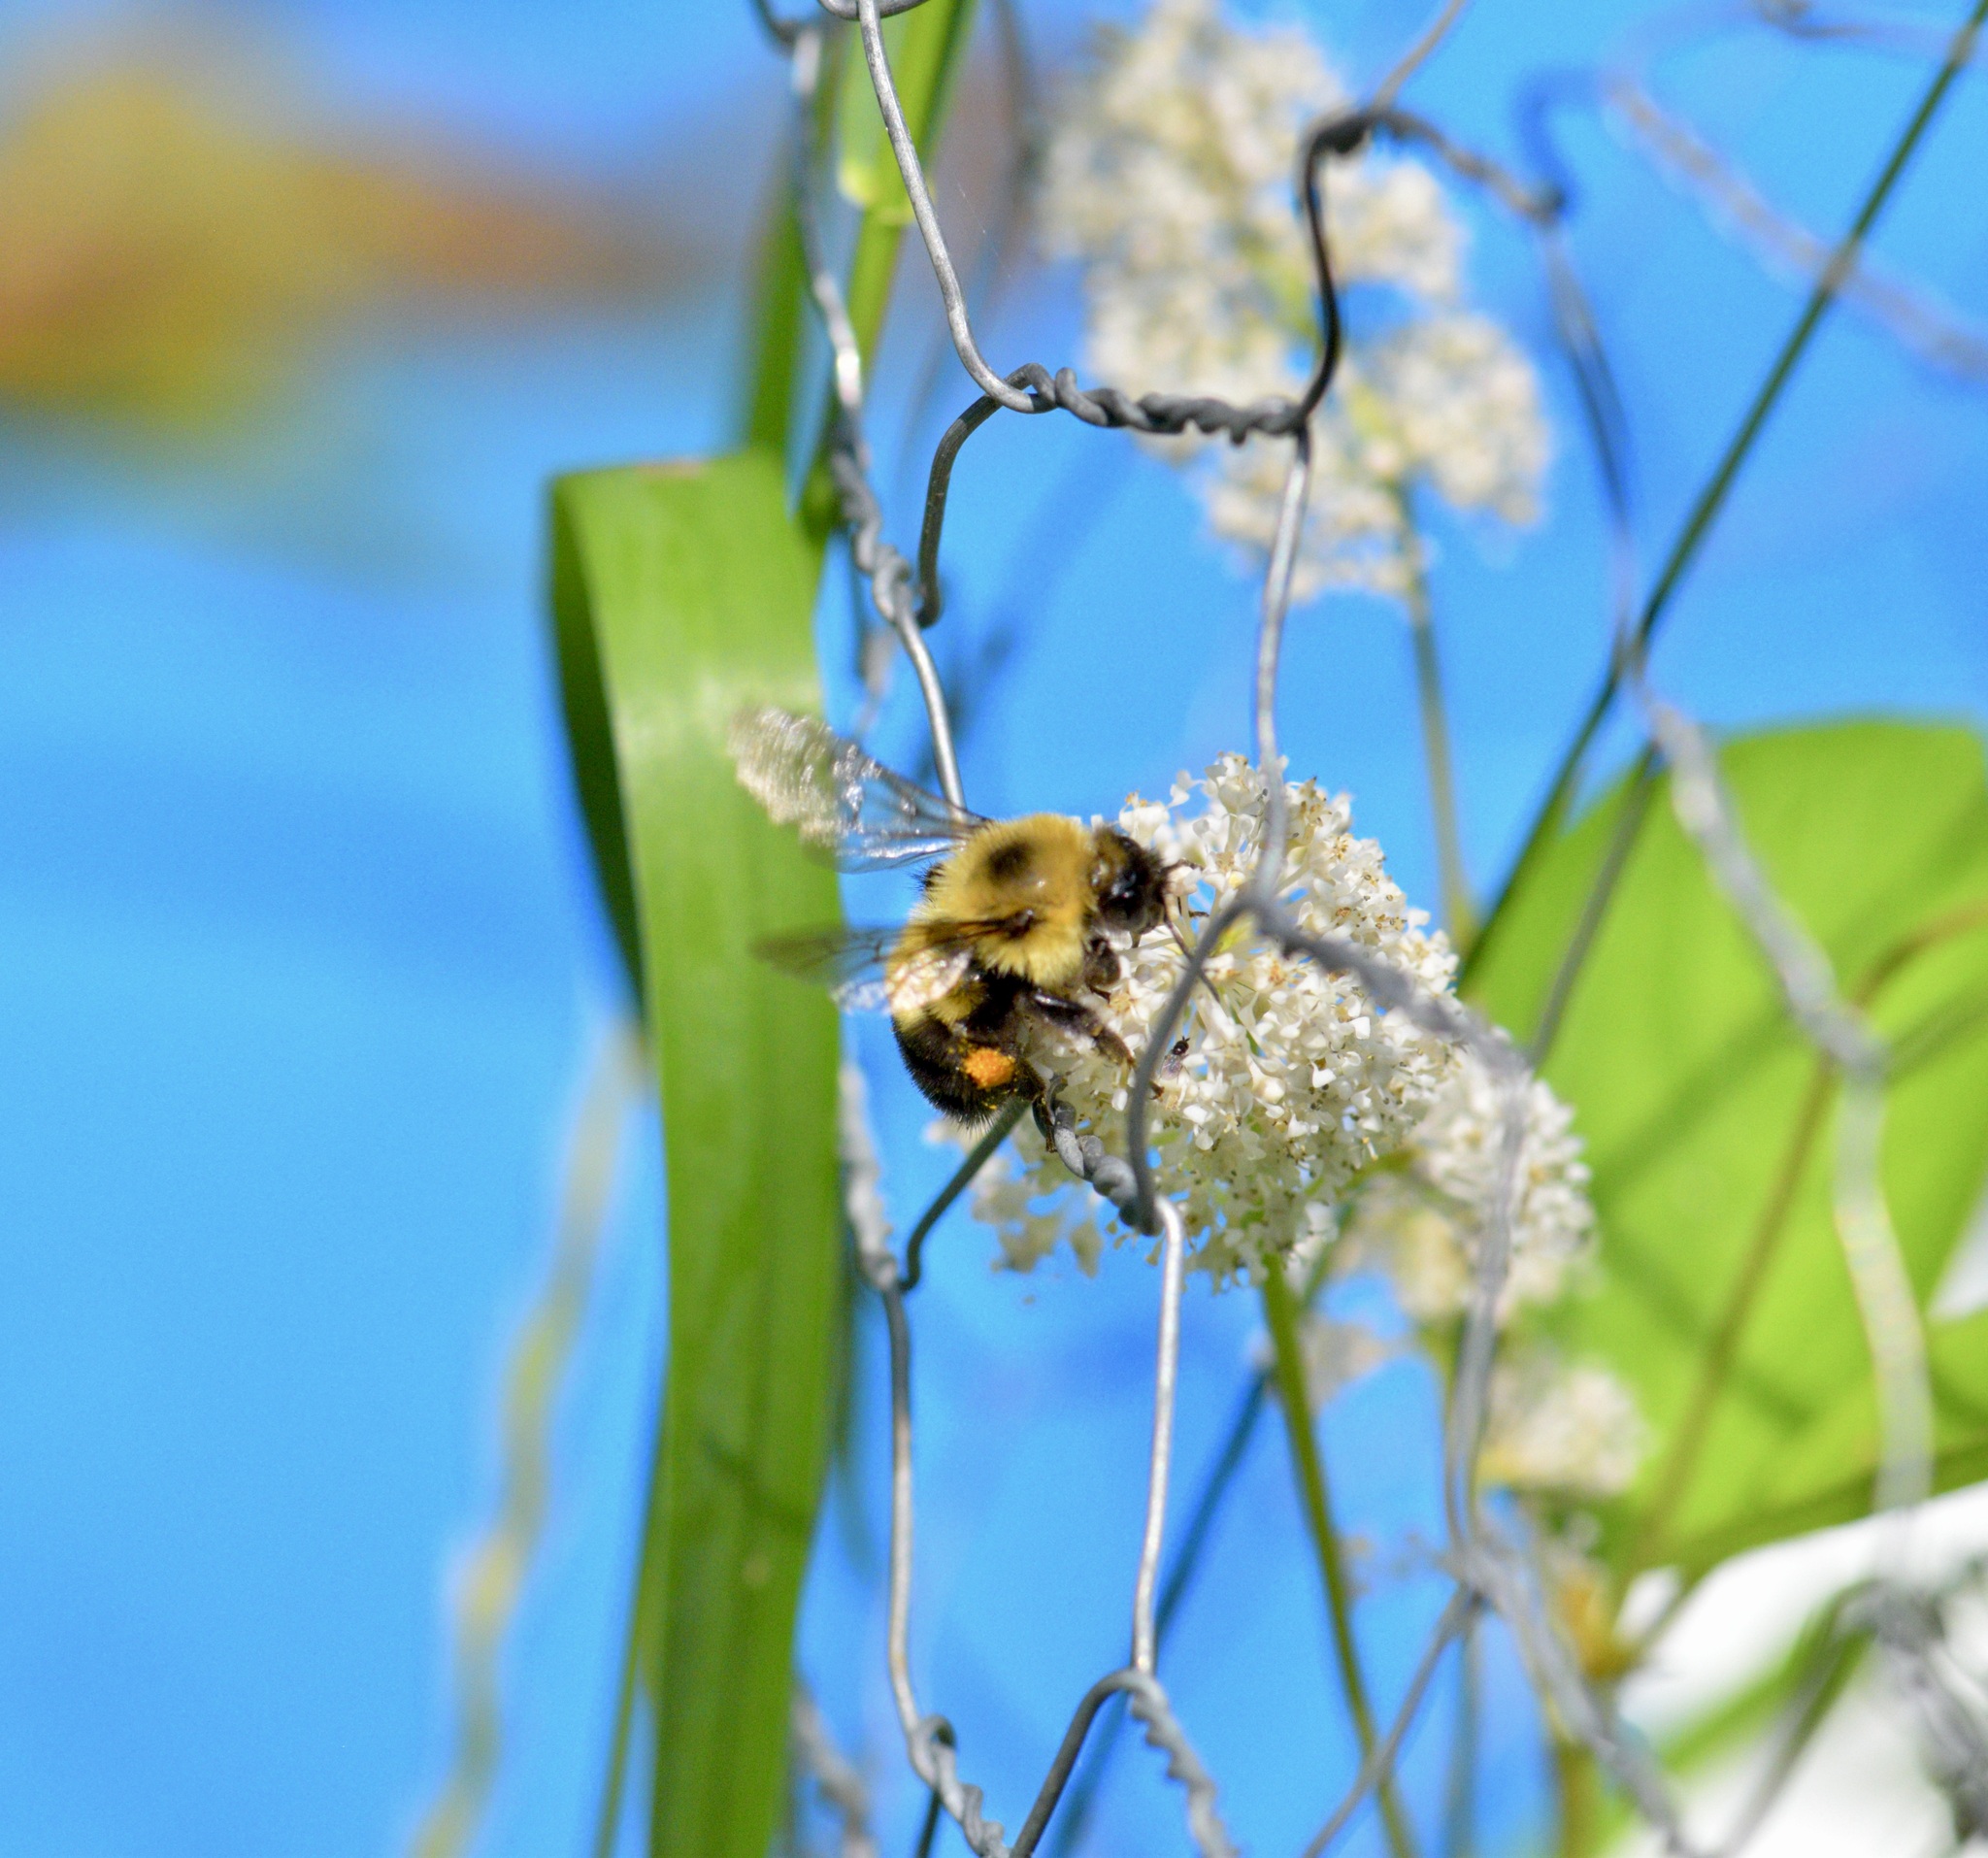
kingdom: Animalia
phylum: Arthropoda
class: Insecta
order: Hymenoptera
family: Apidae
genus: Bombus
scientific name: Bombus bimaculatus
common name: Two-spotted bumble bee
